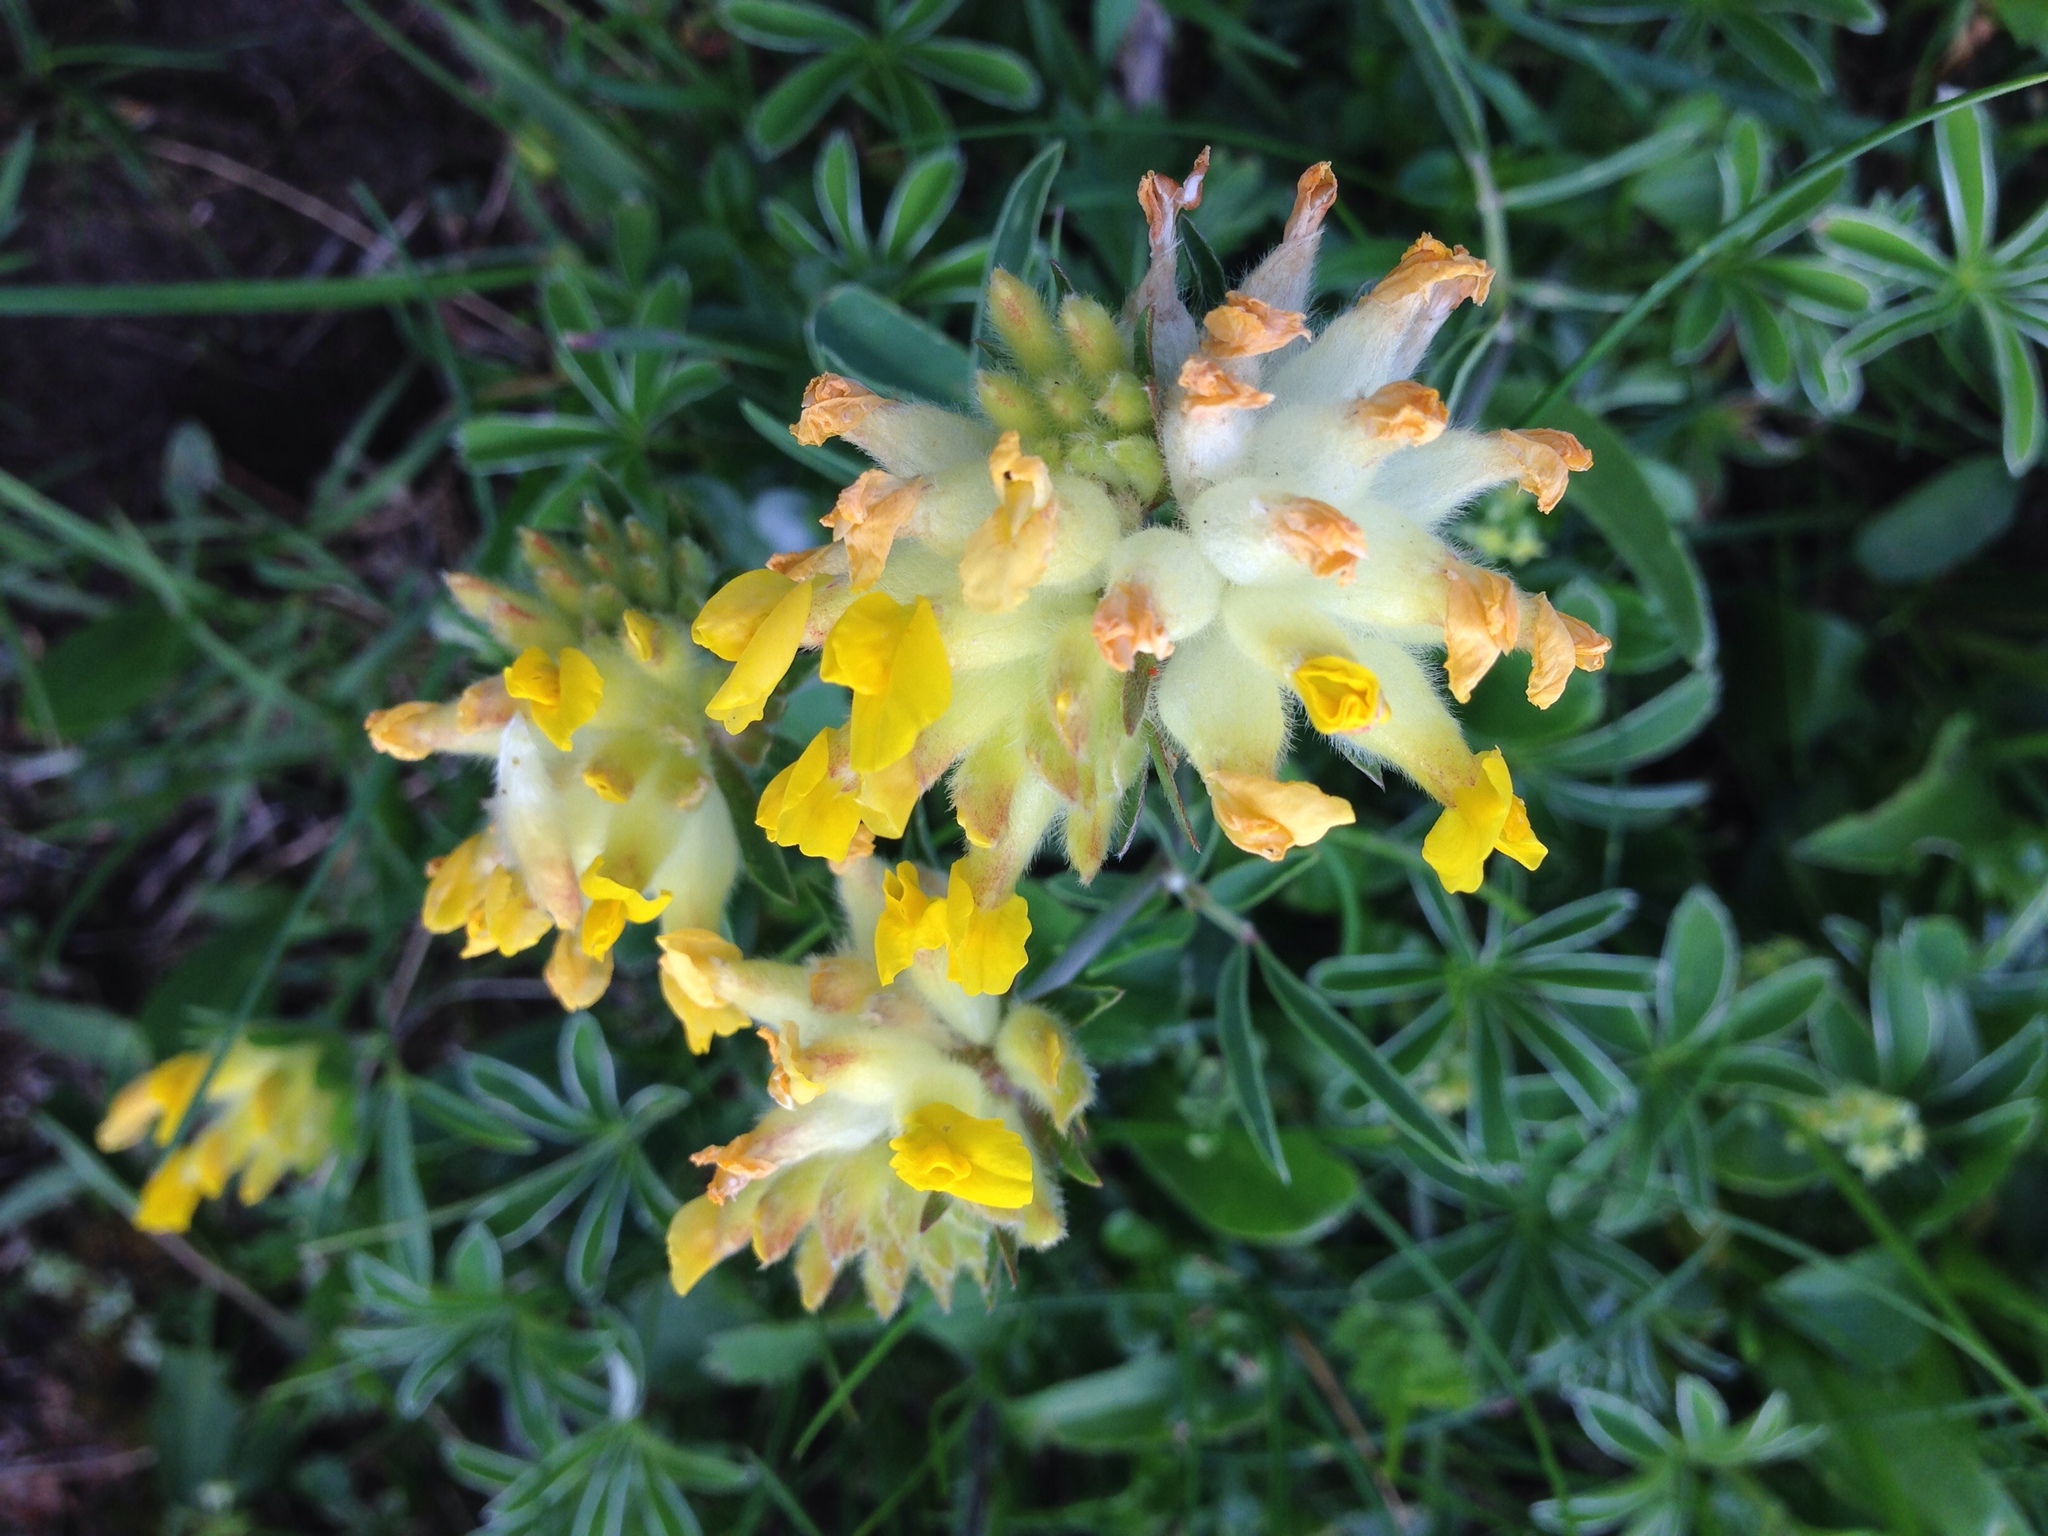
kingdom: Plantae
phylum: Tracheophyta
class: Magnoliopsida
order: Fabales
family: Fabaceae
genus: Anthyllis
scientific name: Anthyllis vulneraria
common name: Kidney vetch
